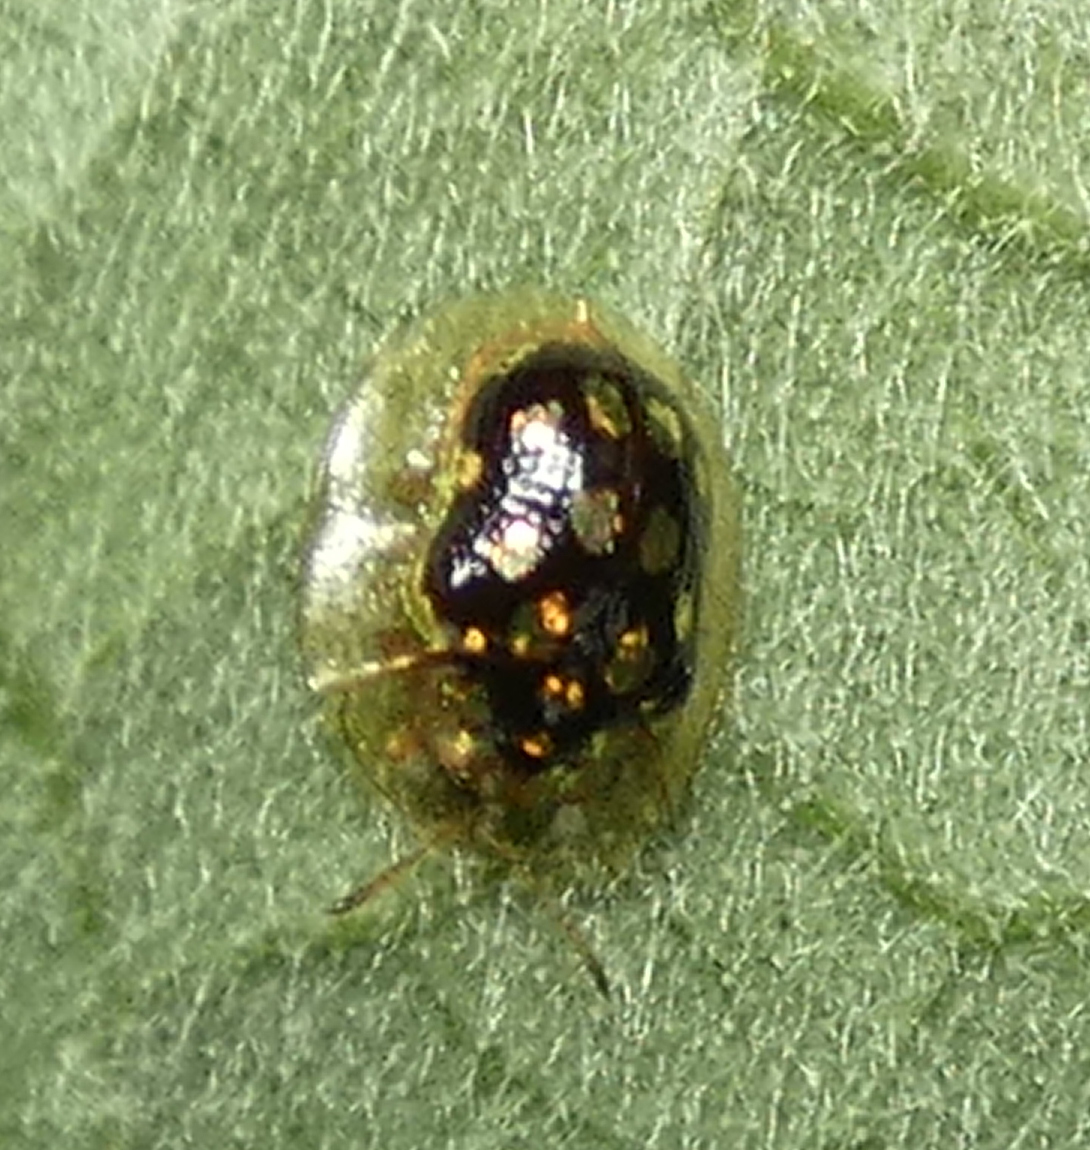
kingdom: Animalia
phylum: Arthropoda
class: Insecta
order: Coleoptera
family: Chrysomelidae
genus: Plagiometriona
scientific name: Plagiometriona microcera
